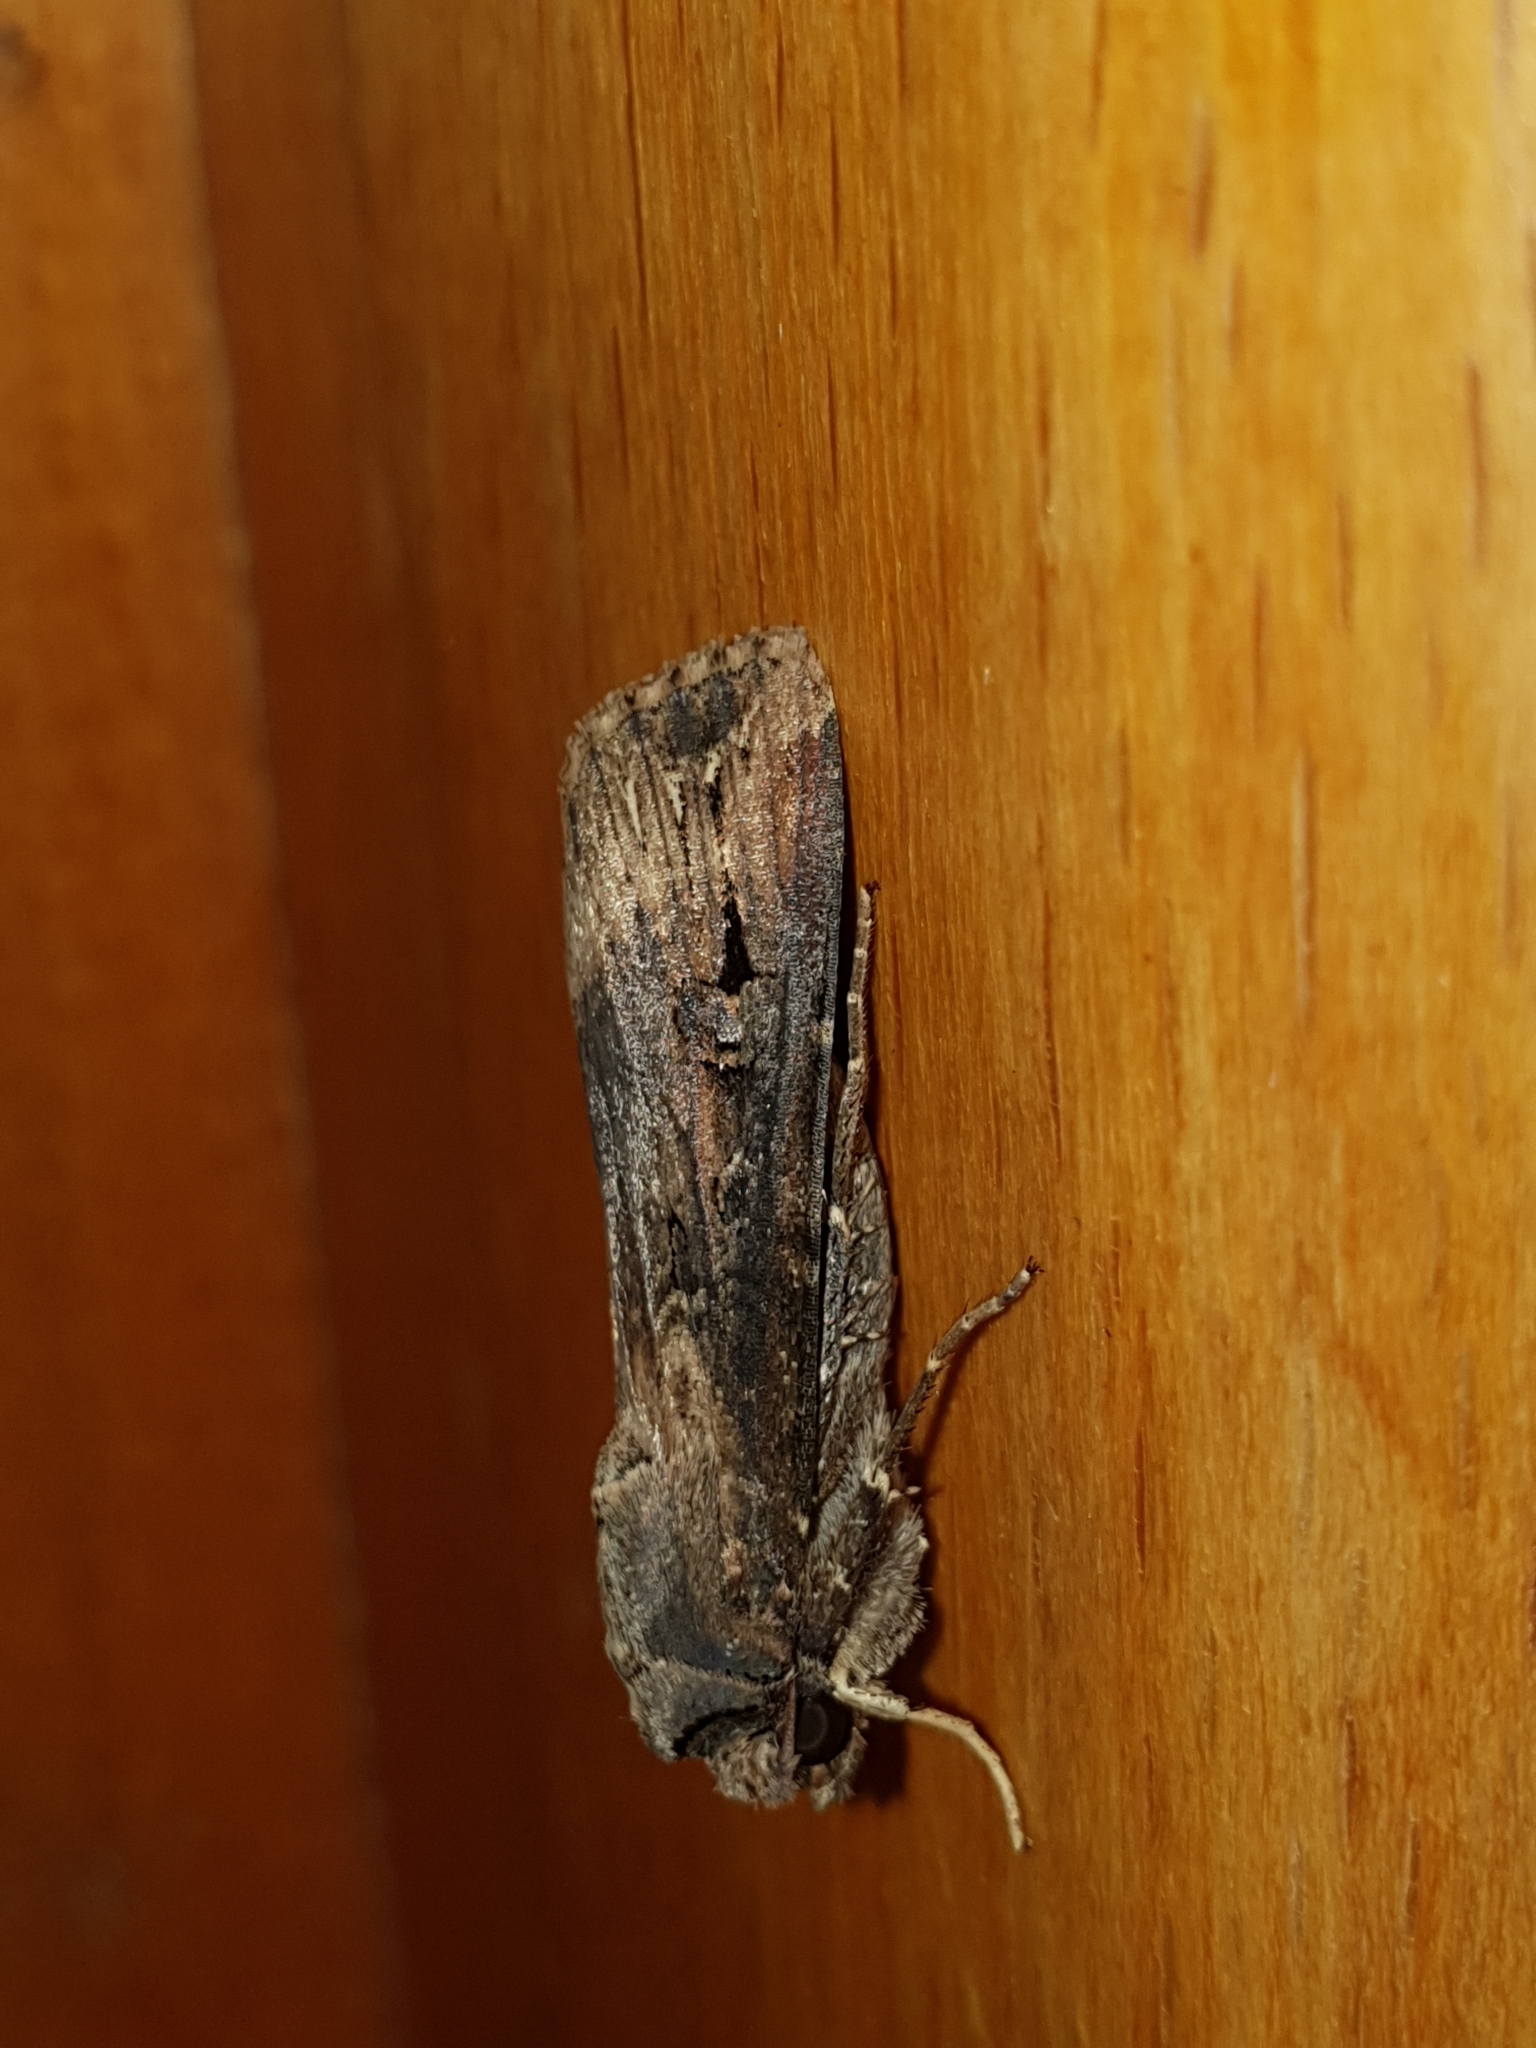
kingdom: Animalia
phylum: Arthropoda
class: Insecta
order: Lepidoptera
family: Noctuidae
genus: Agrotis
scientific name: Agrotis ipsilon
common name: Dark sword-grass
